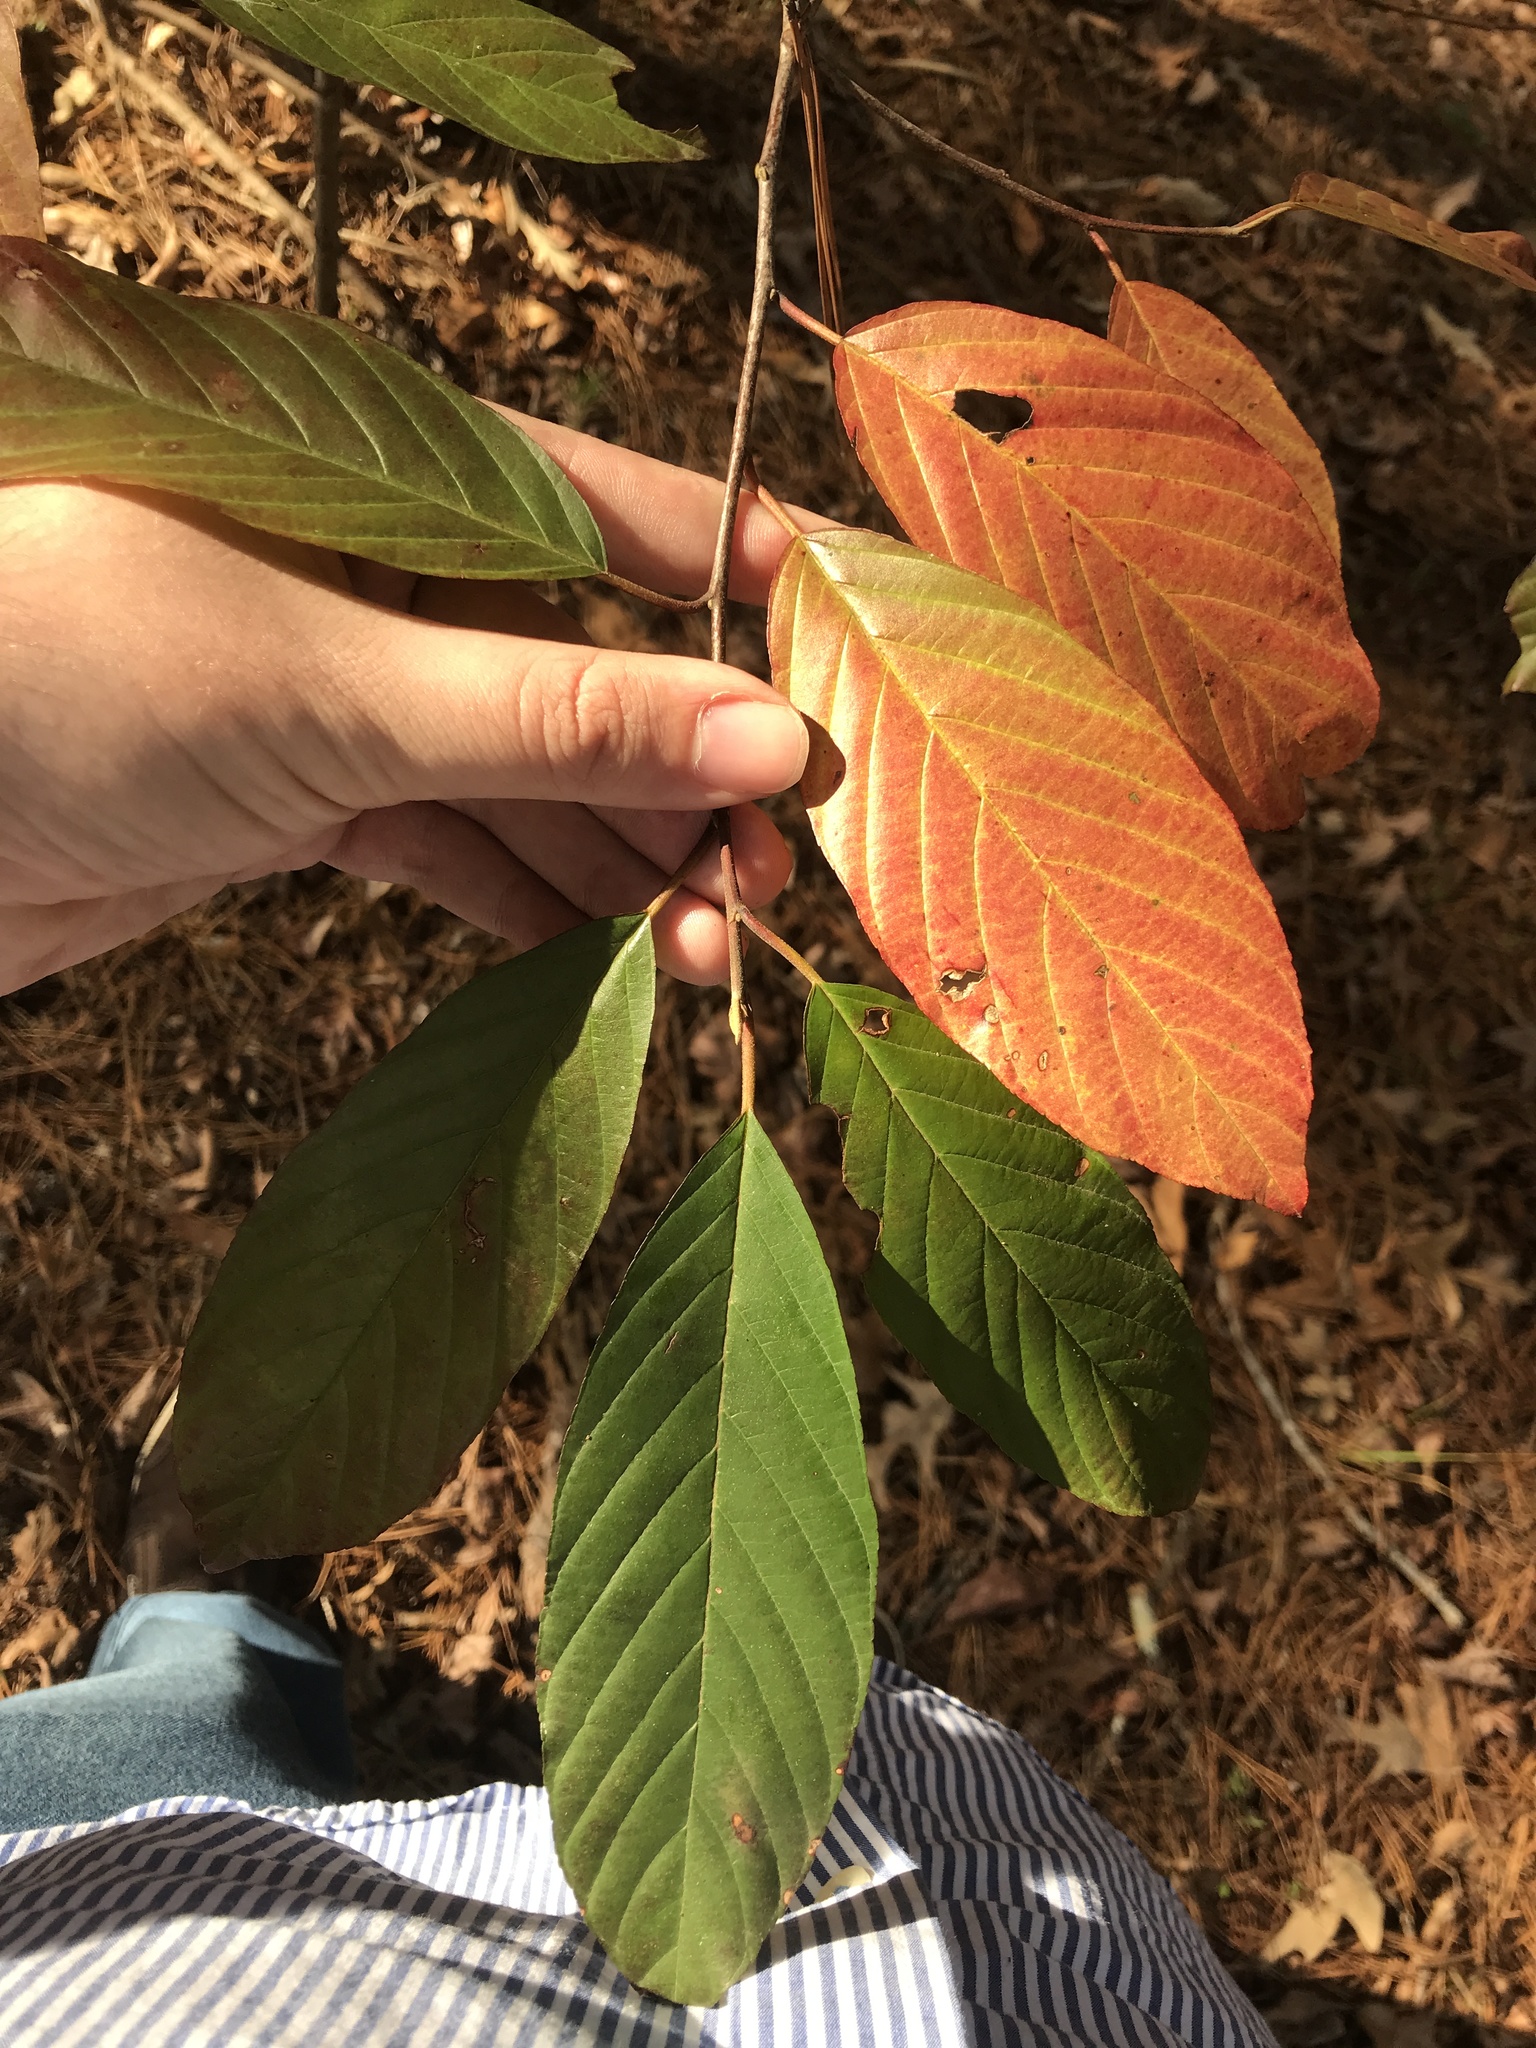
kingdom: Plantae
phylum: Tracheophyta
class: Magnoliopsida
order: Rosales
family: Rhamnaceae
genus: Frangula
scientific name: Frangula caroliniana
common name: Carolina buckthorn
